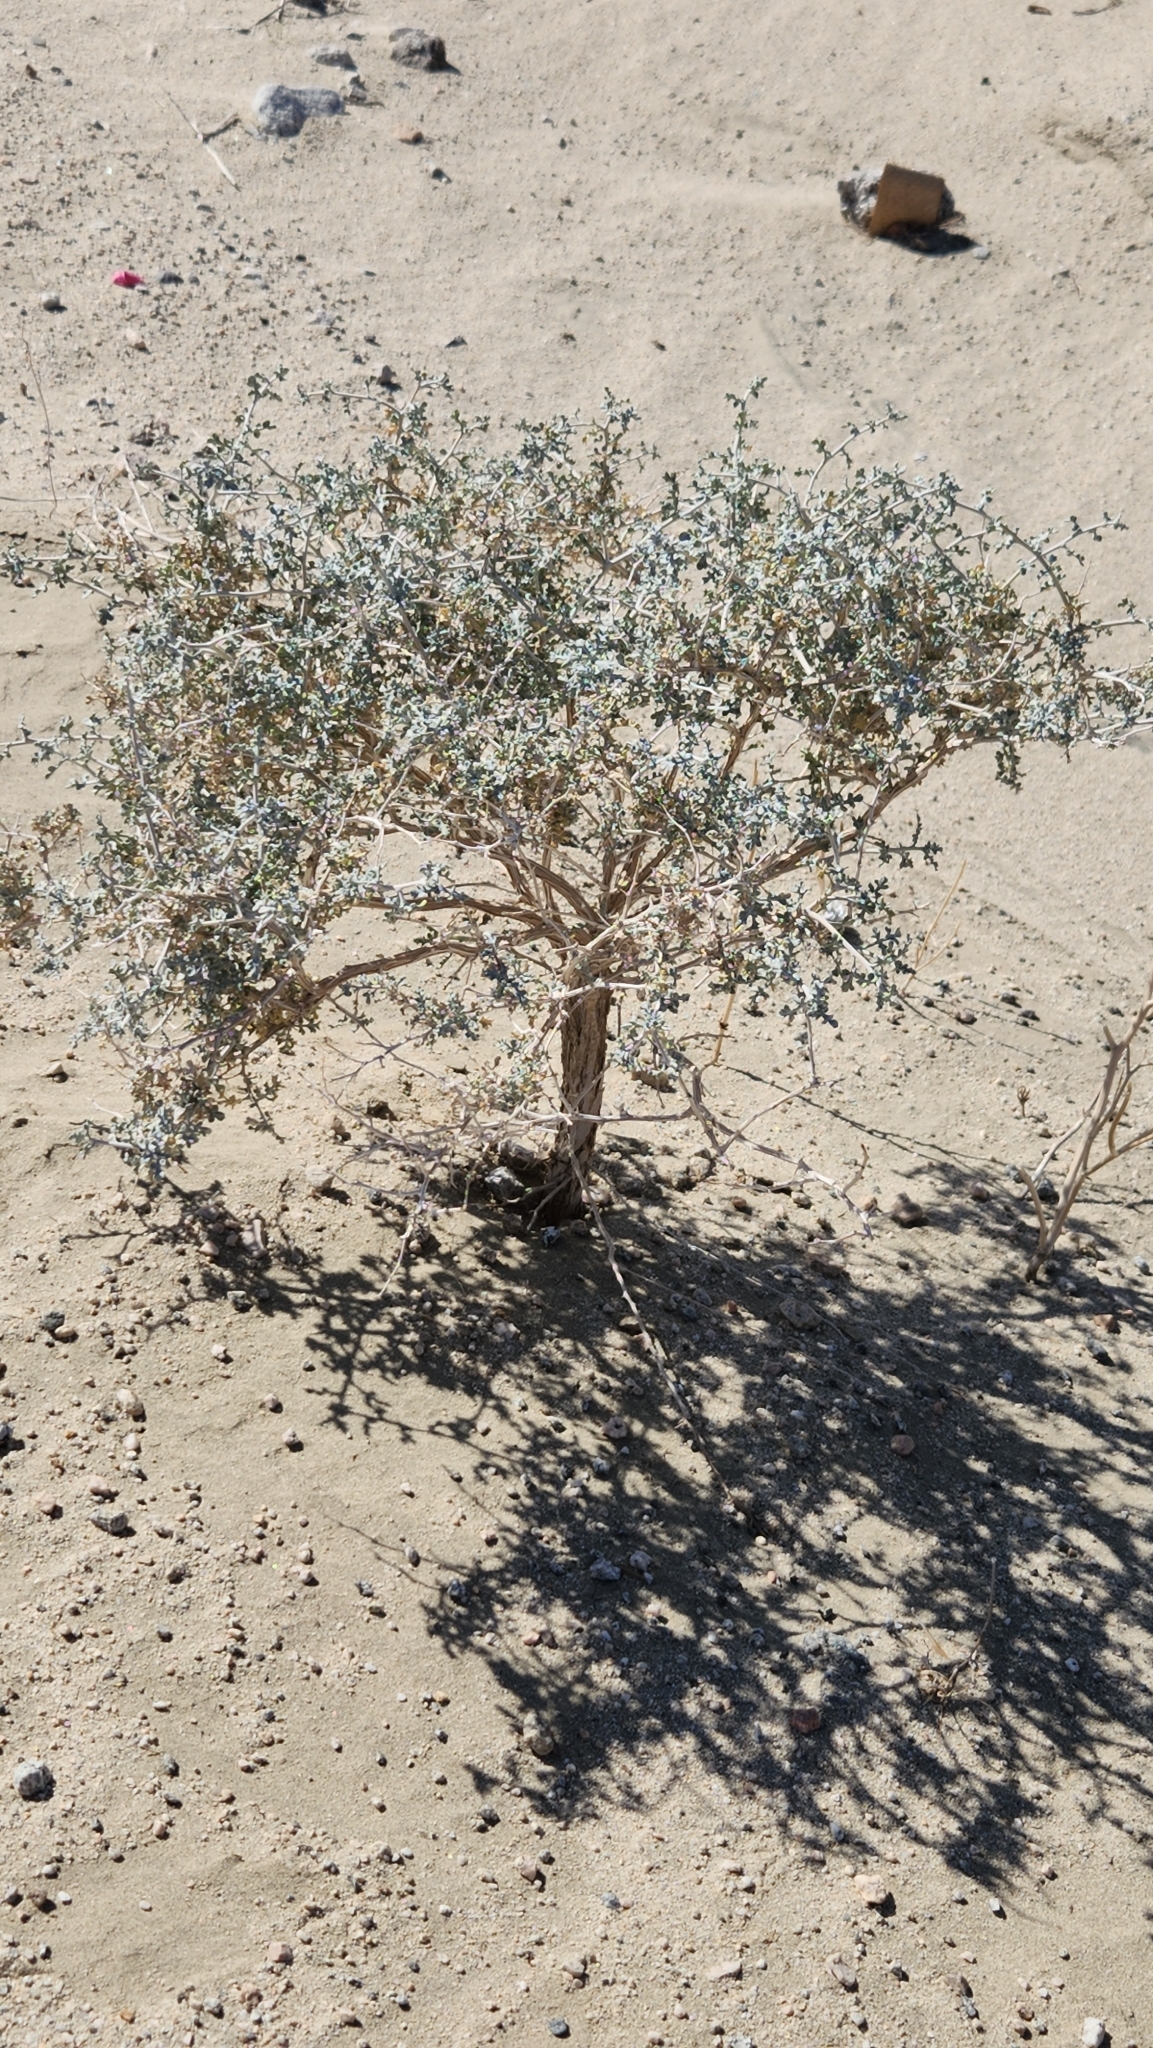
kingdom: Plantae
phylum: Tracheophyta
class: Magnoliopsida
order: Asterales
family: Asteraceae
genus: Ambrosia
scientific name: Ambrosia dumosa
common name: Bur-sage
